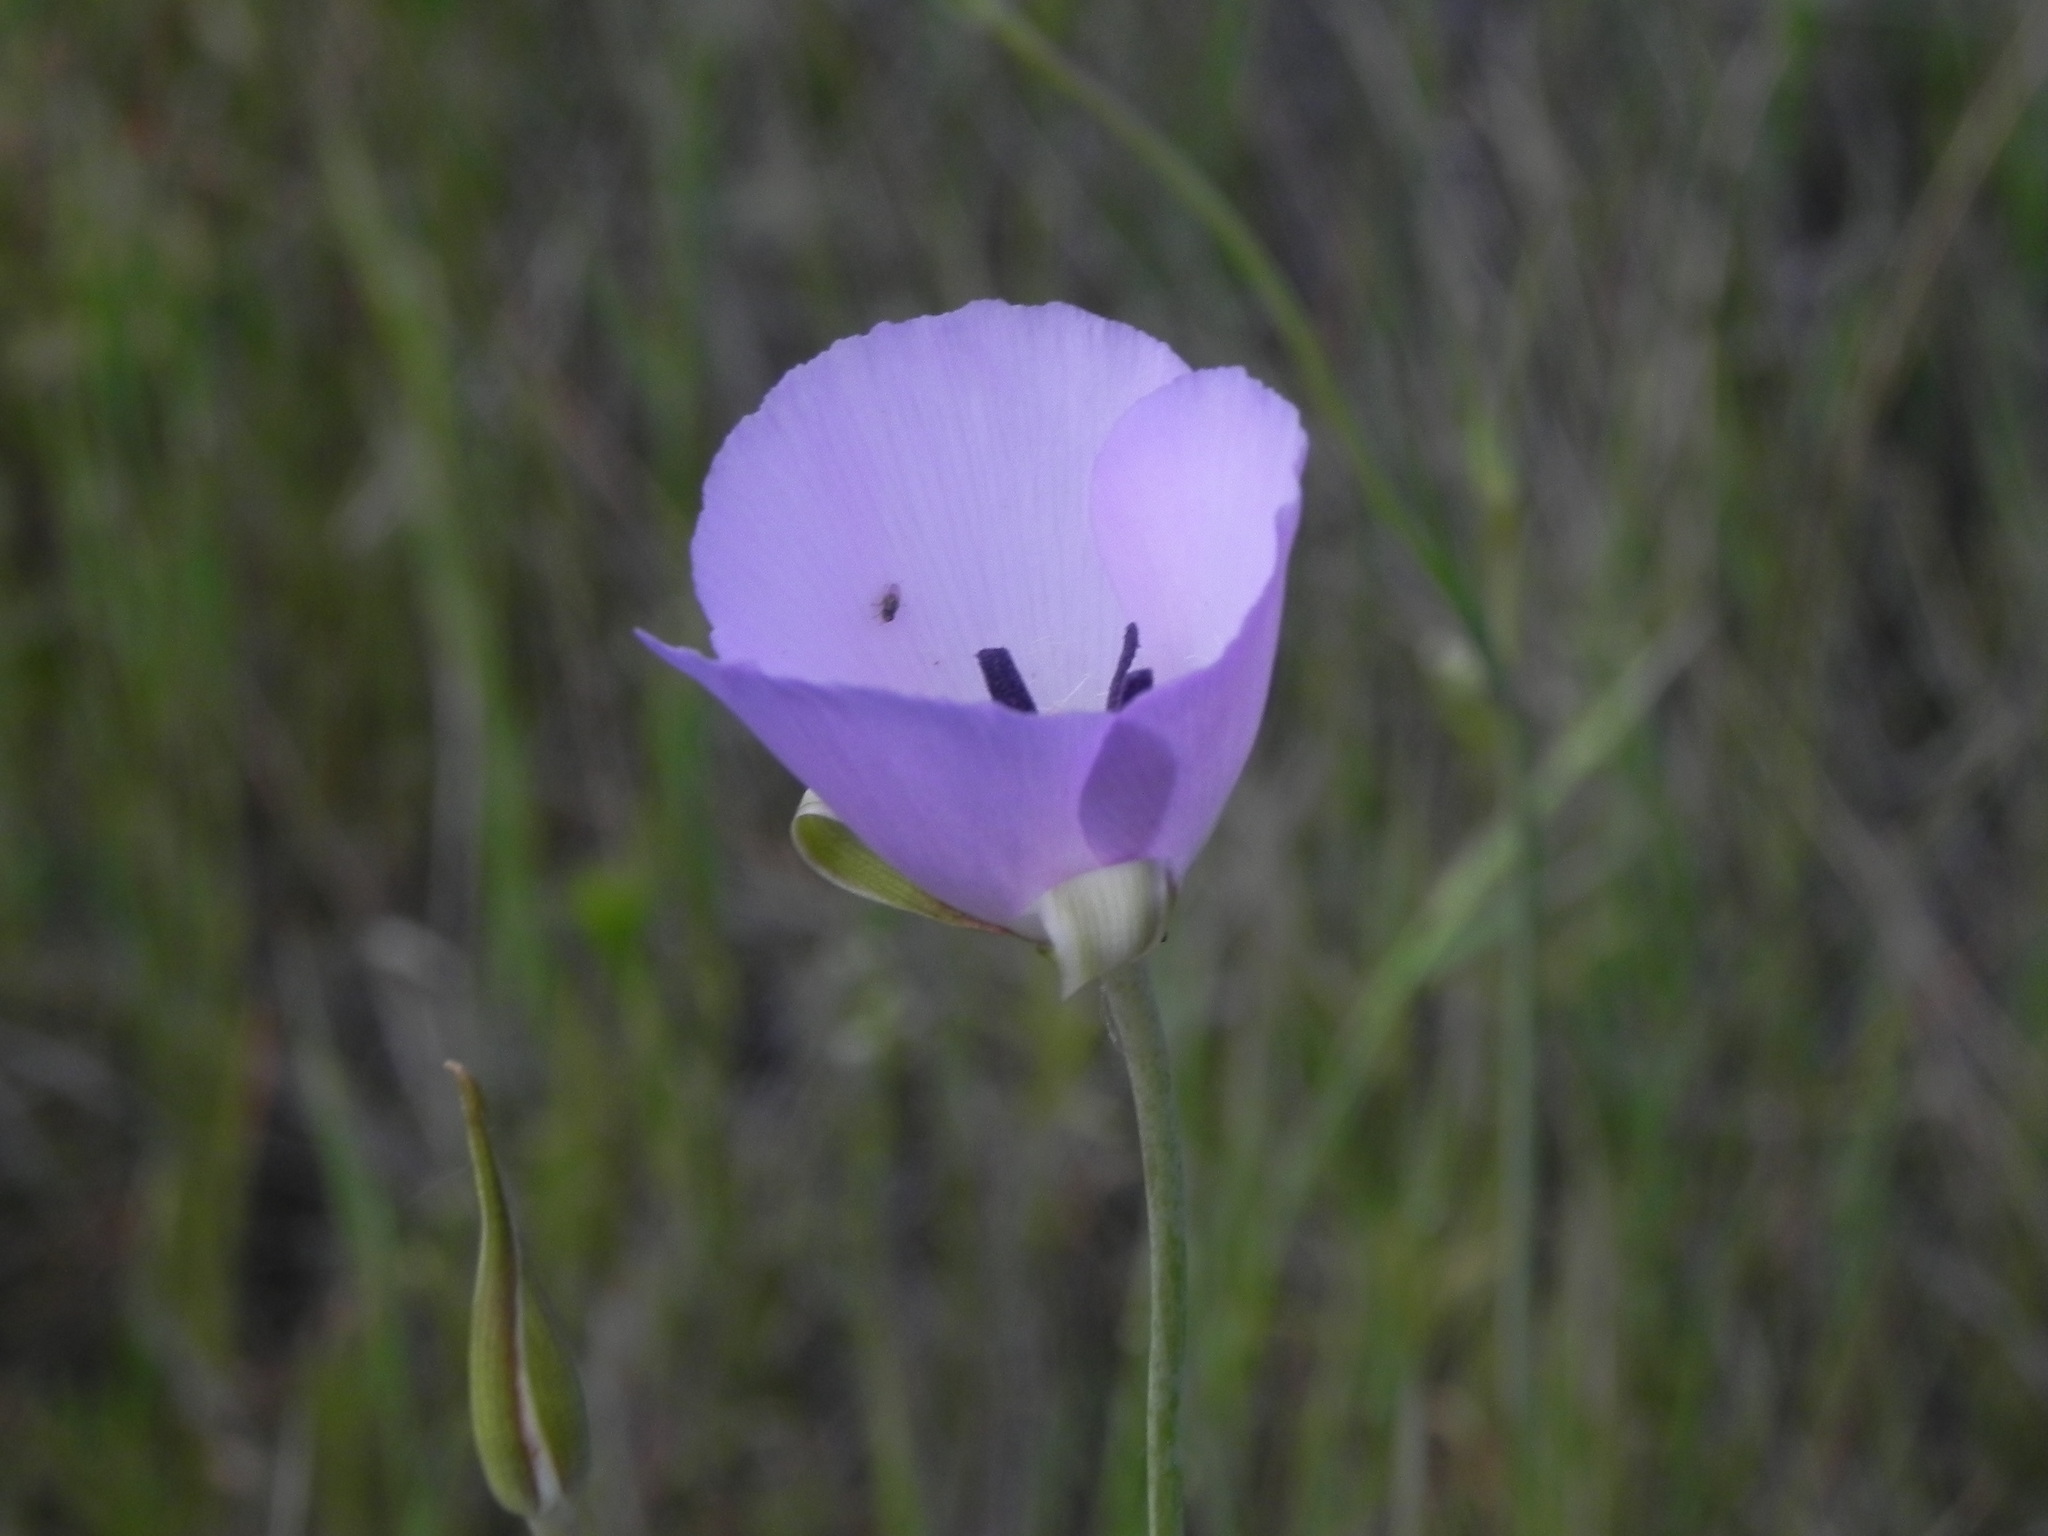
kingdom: Plantae
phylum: Tracheophyta
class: Liliopsida
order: Liliales
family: Liliaceae
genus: Calochortus
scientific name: Calochortus splendens
